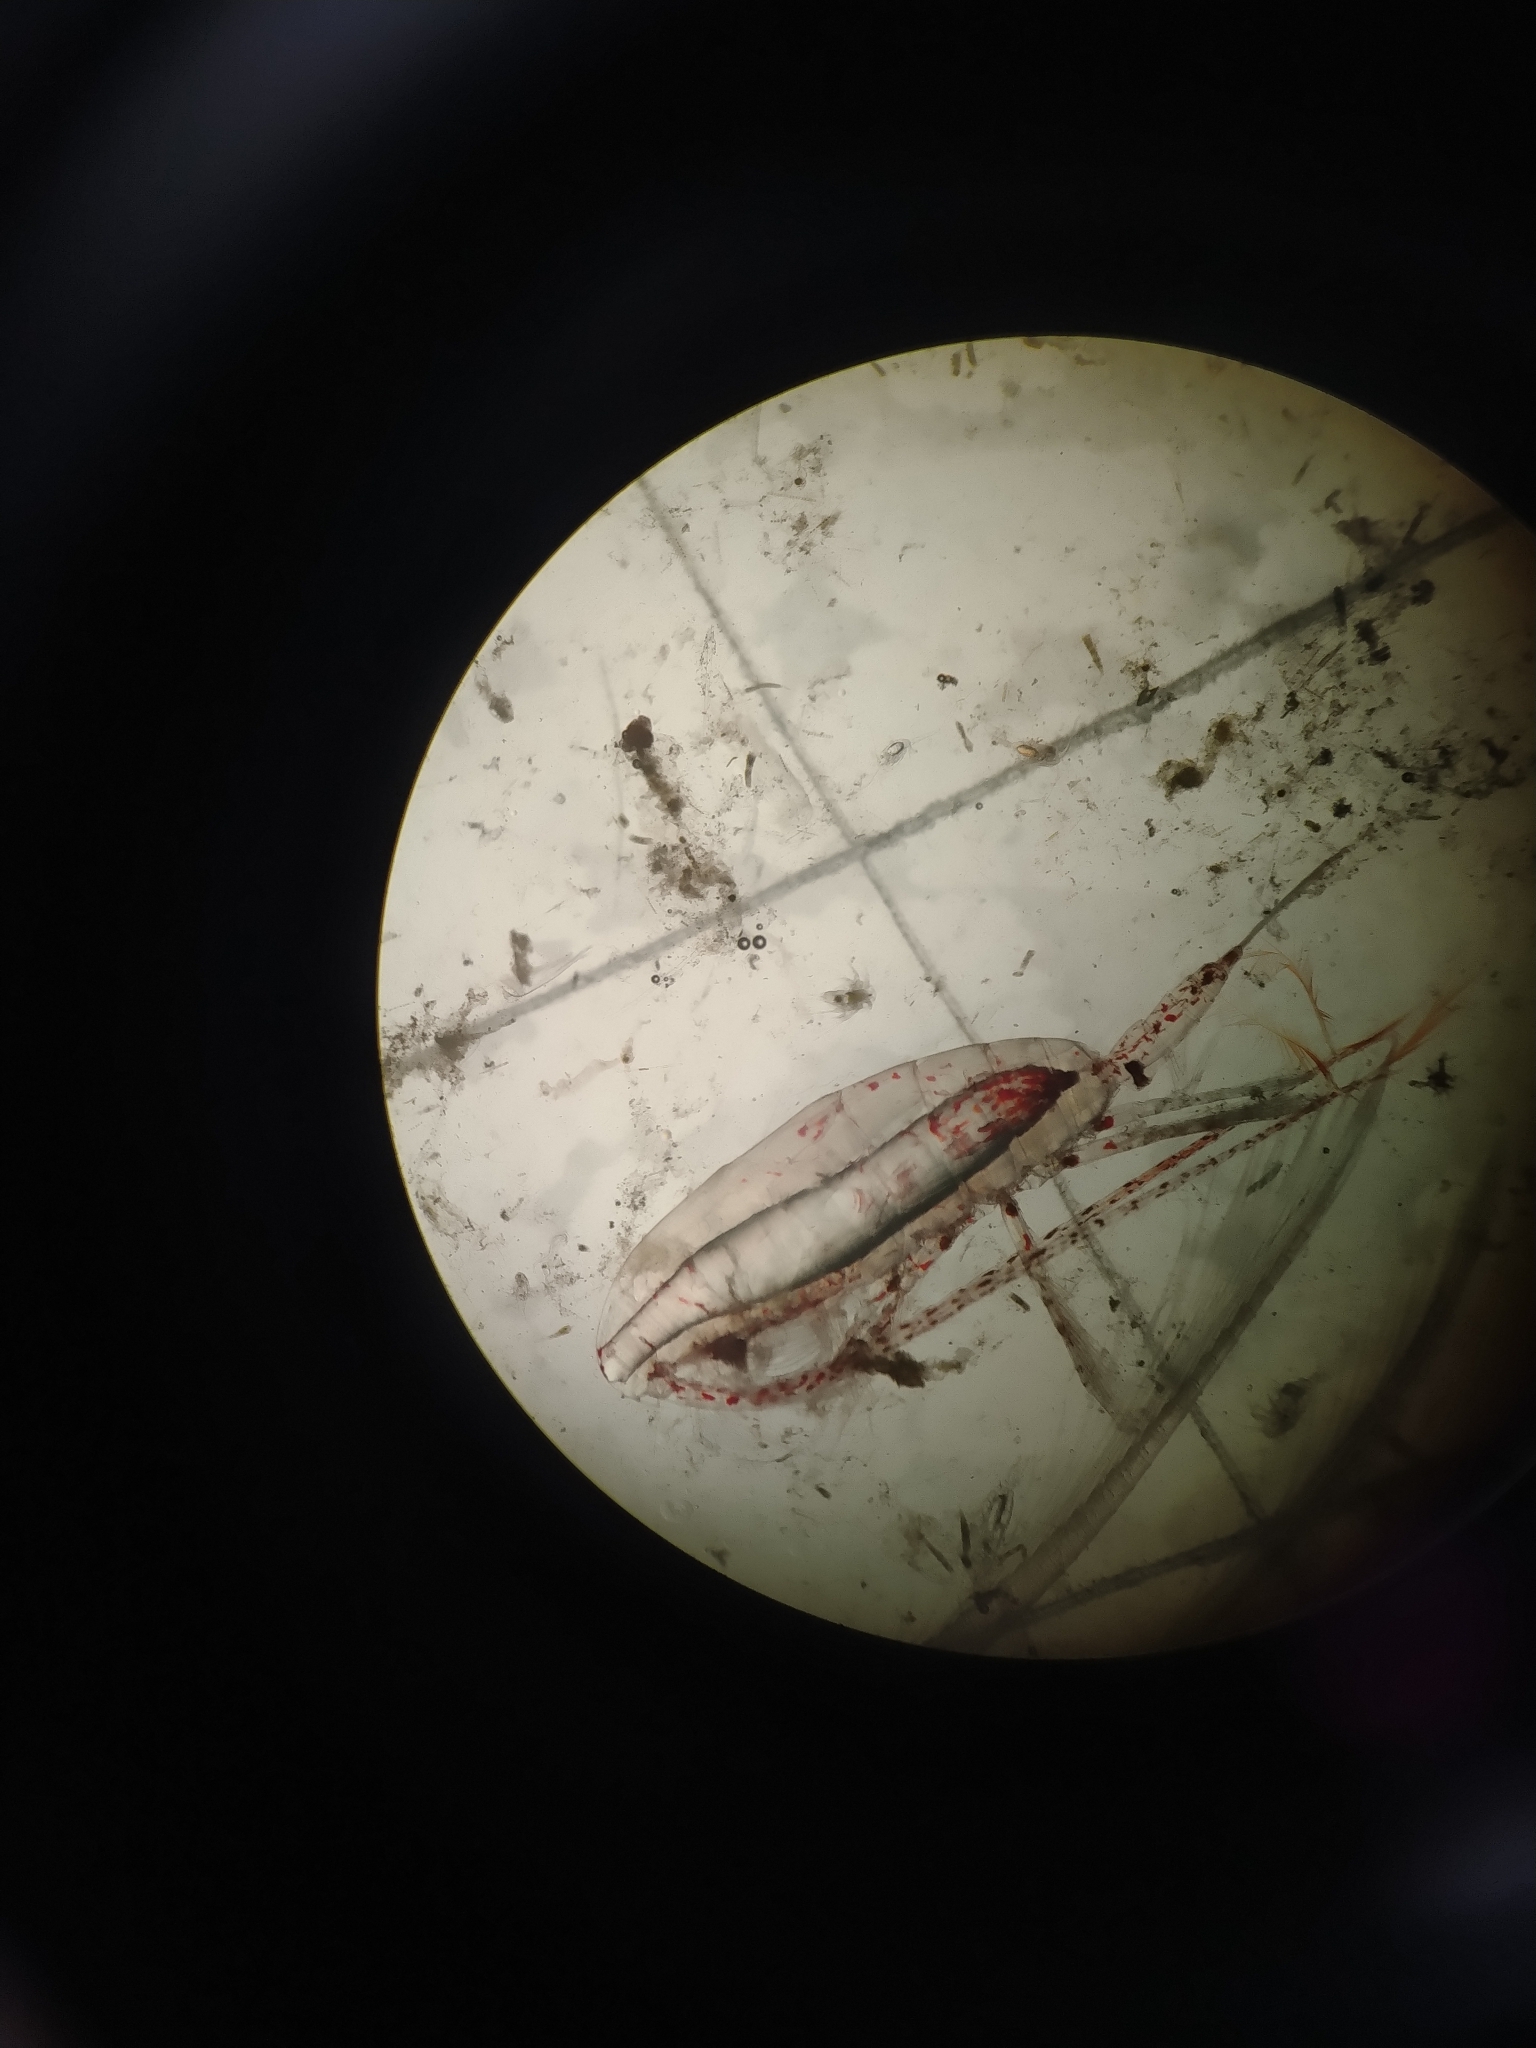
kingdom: Animalia
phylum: Arthropoda
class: Copepoda
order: Calanoida
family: Calanidae
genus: Calanus
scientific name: Calanus hyperboreus
